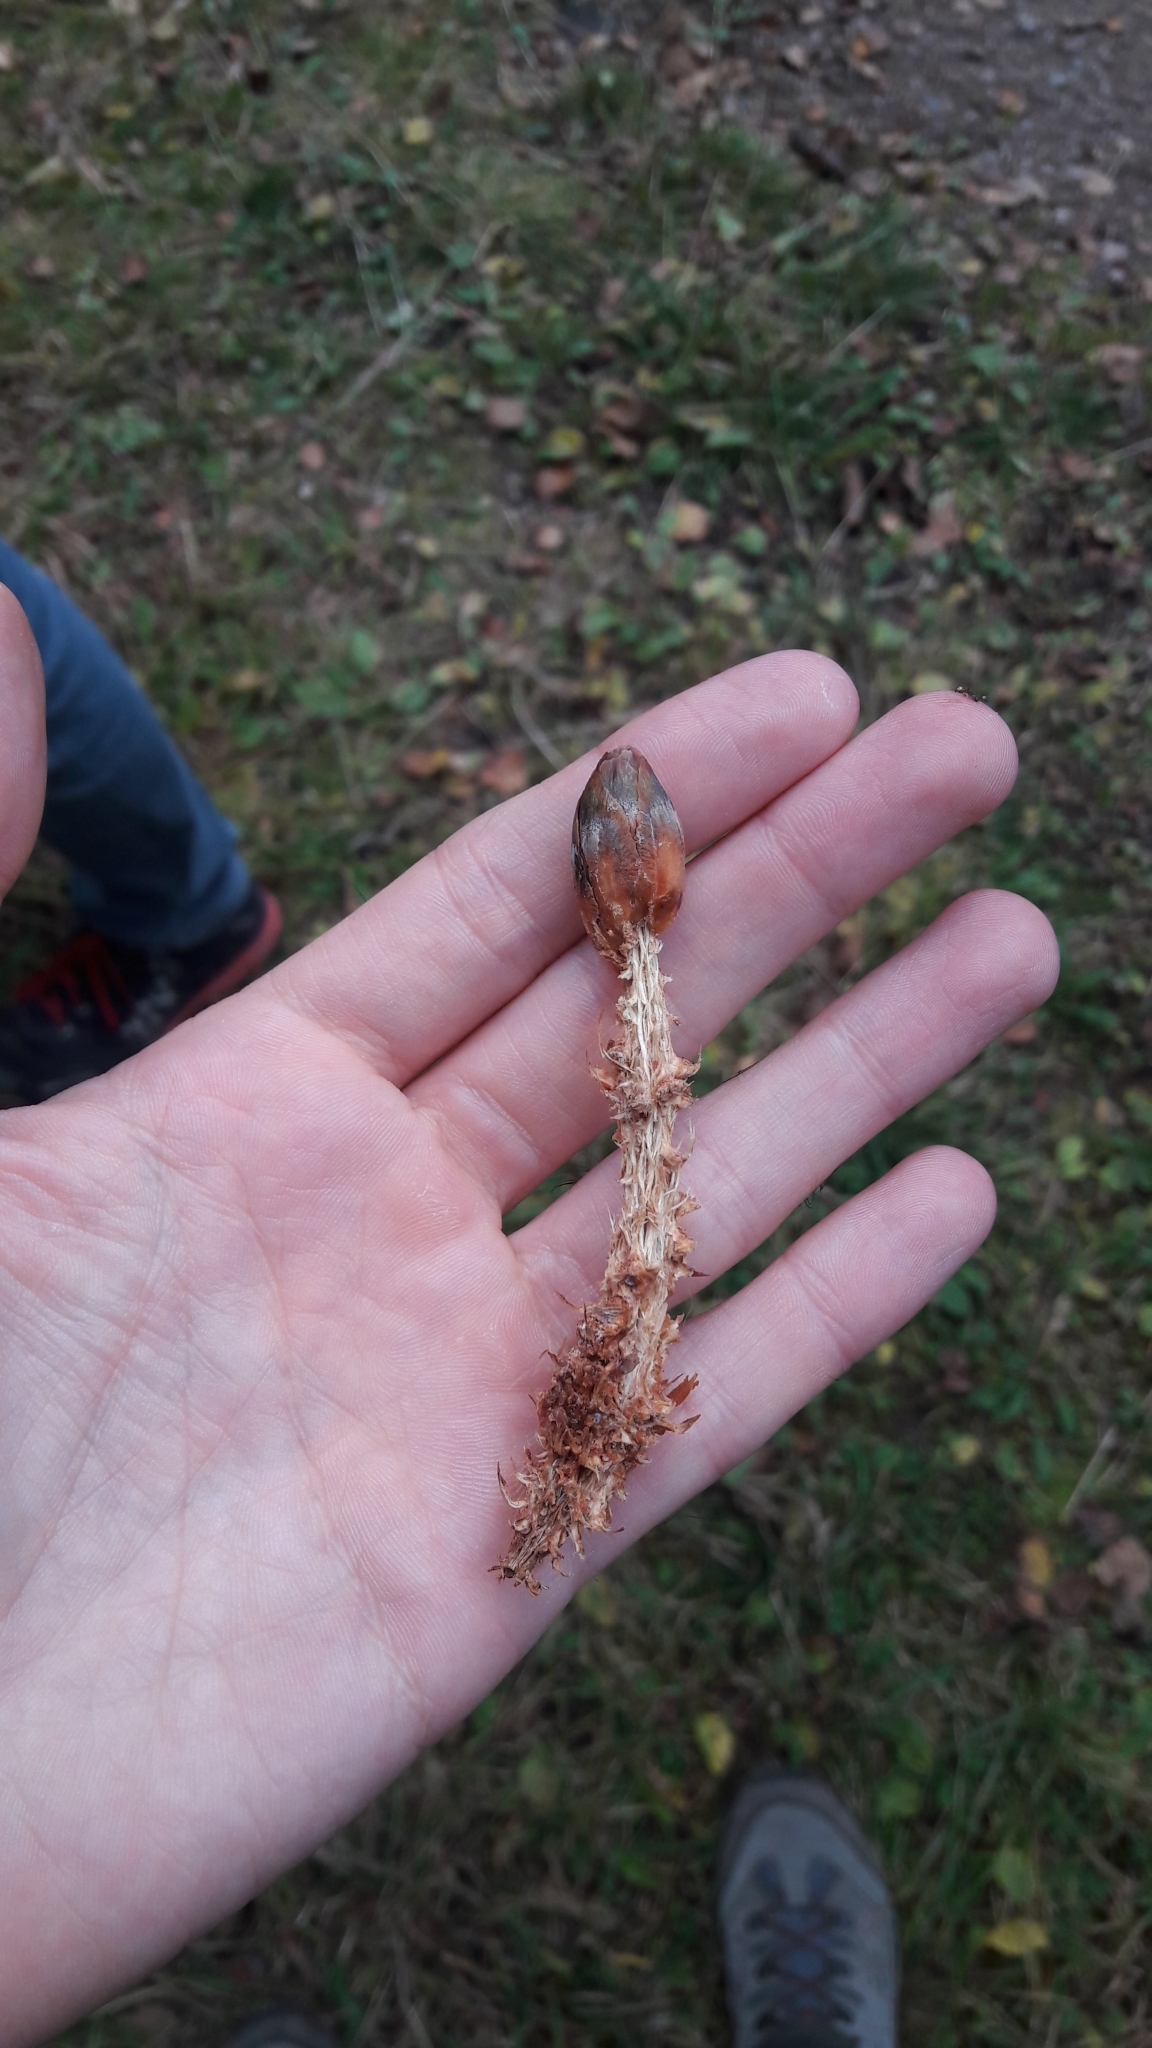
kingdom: Animalia
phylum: Chordata
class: Mammalia
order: Rodentia
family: Sciuridae
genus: Sciurus
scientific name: Sciurus vulgaris
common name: Eurasian red squirrel
